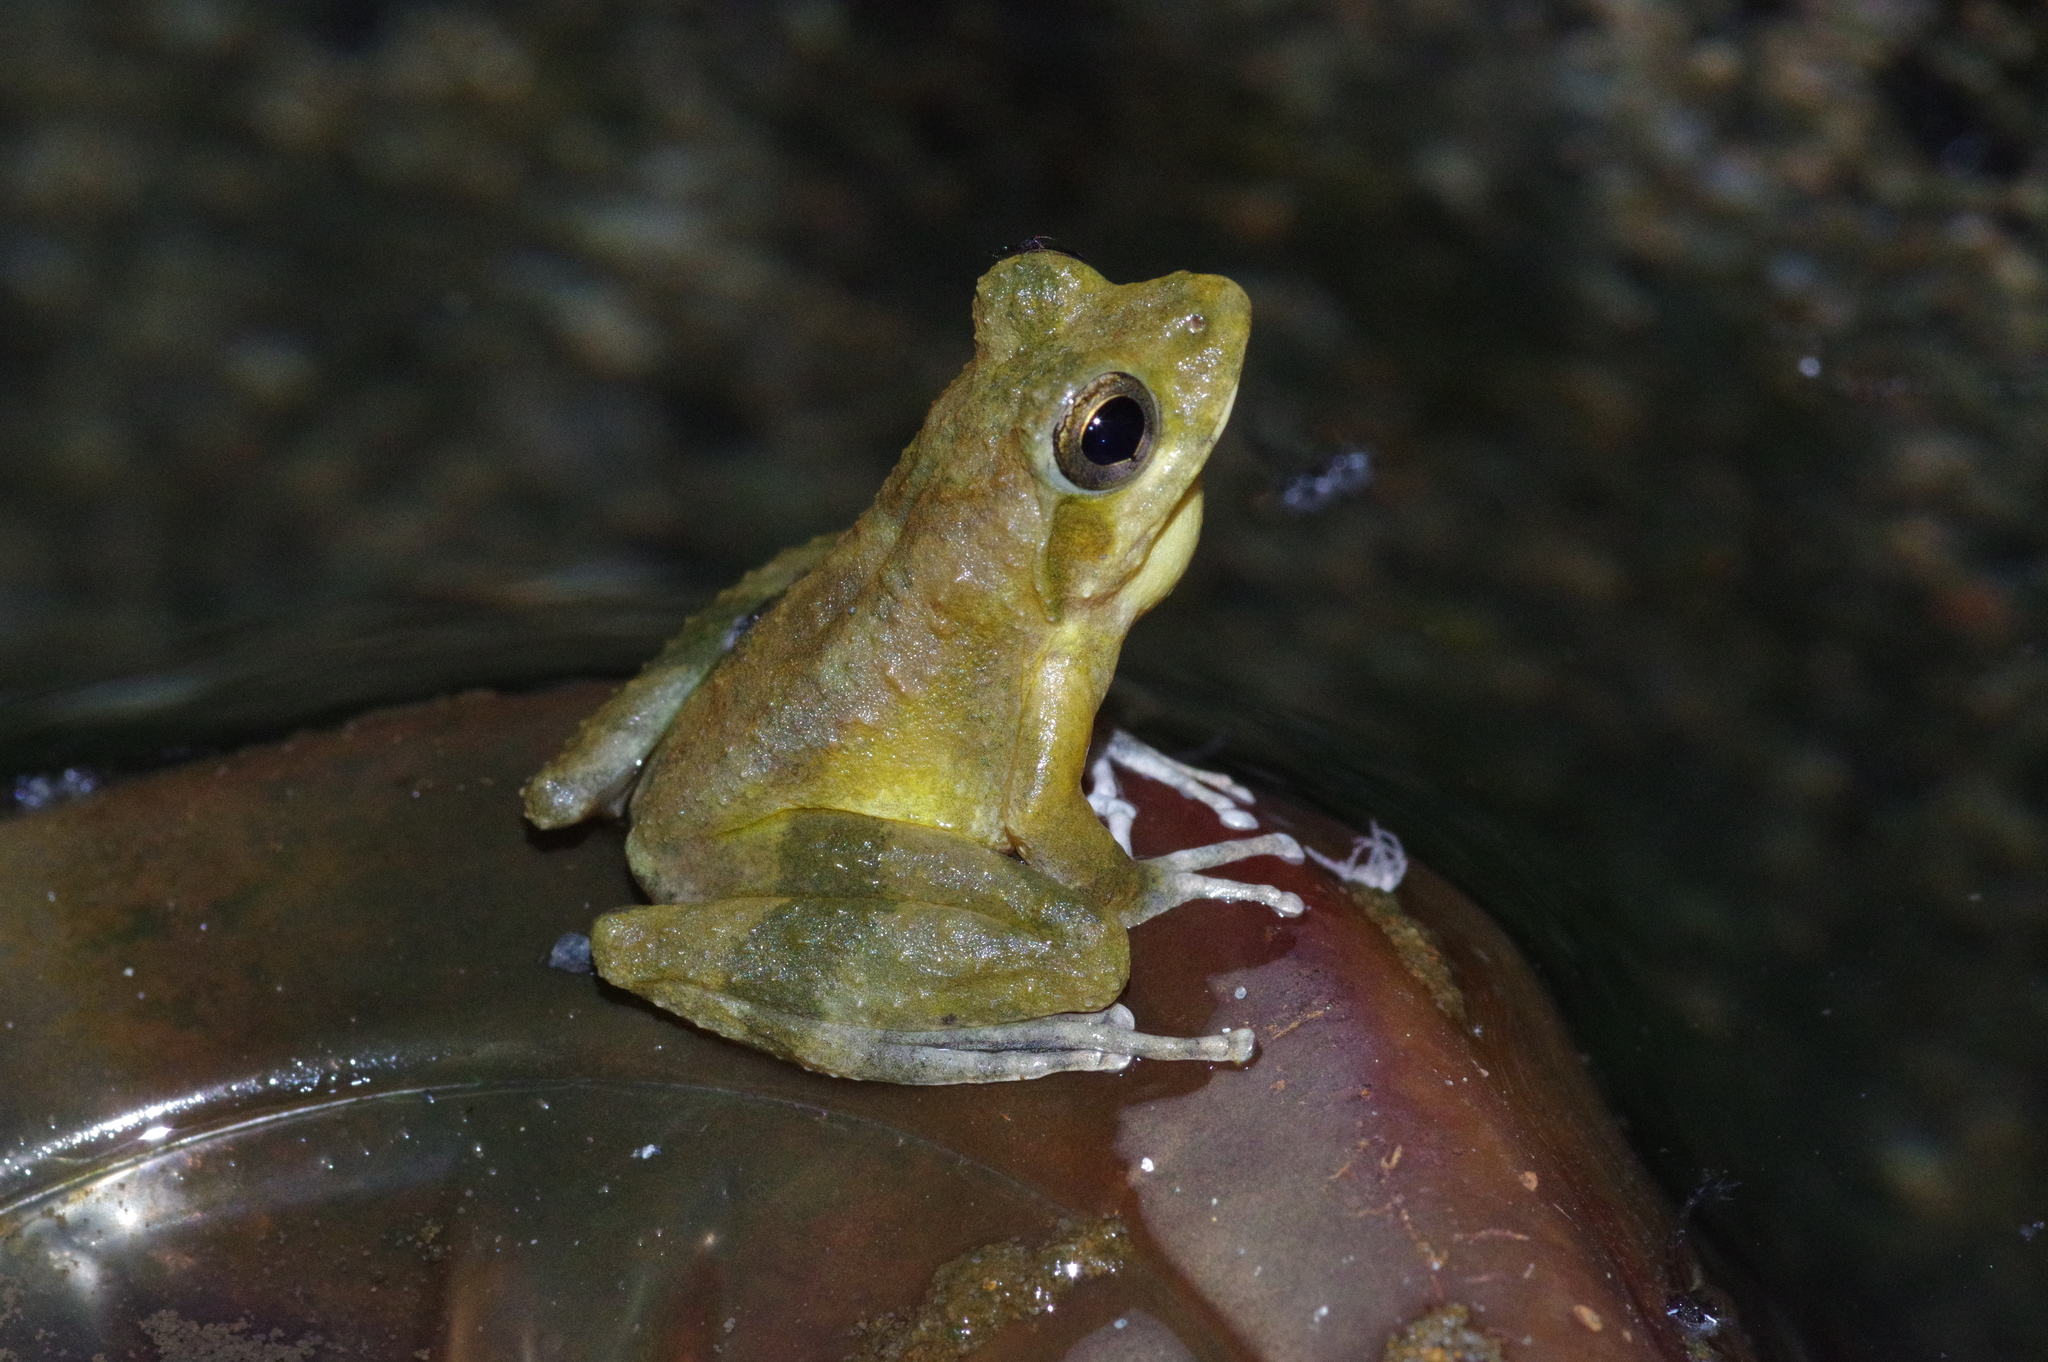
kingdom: Animalia
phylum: Chordata
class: Amphibia
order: Anura
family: Rhacophoridae
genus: Buergeria
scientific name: Buergeria japonica
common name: Japanese buerger's frog
